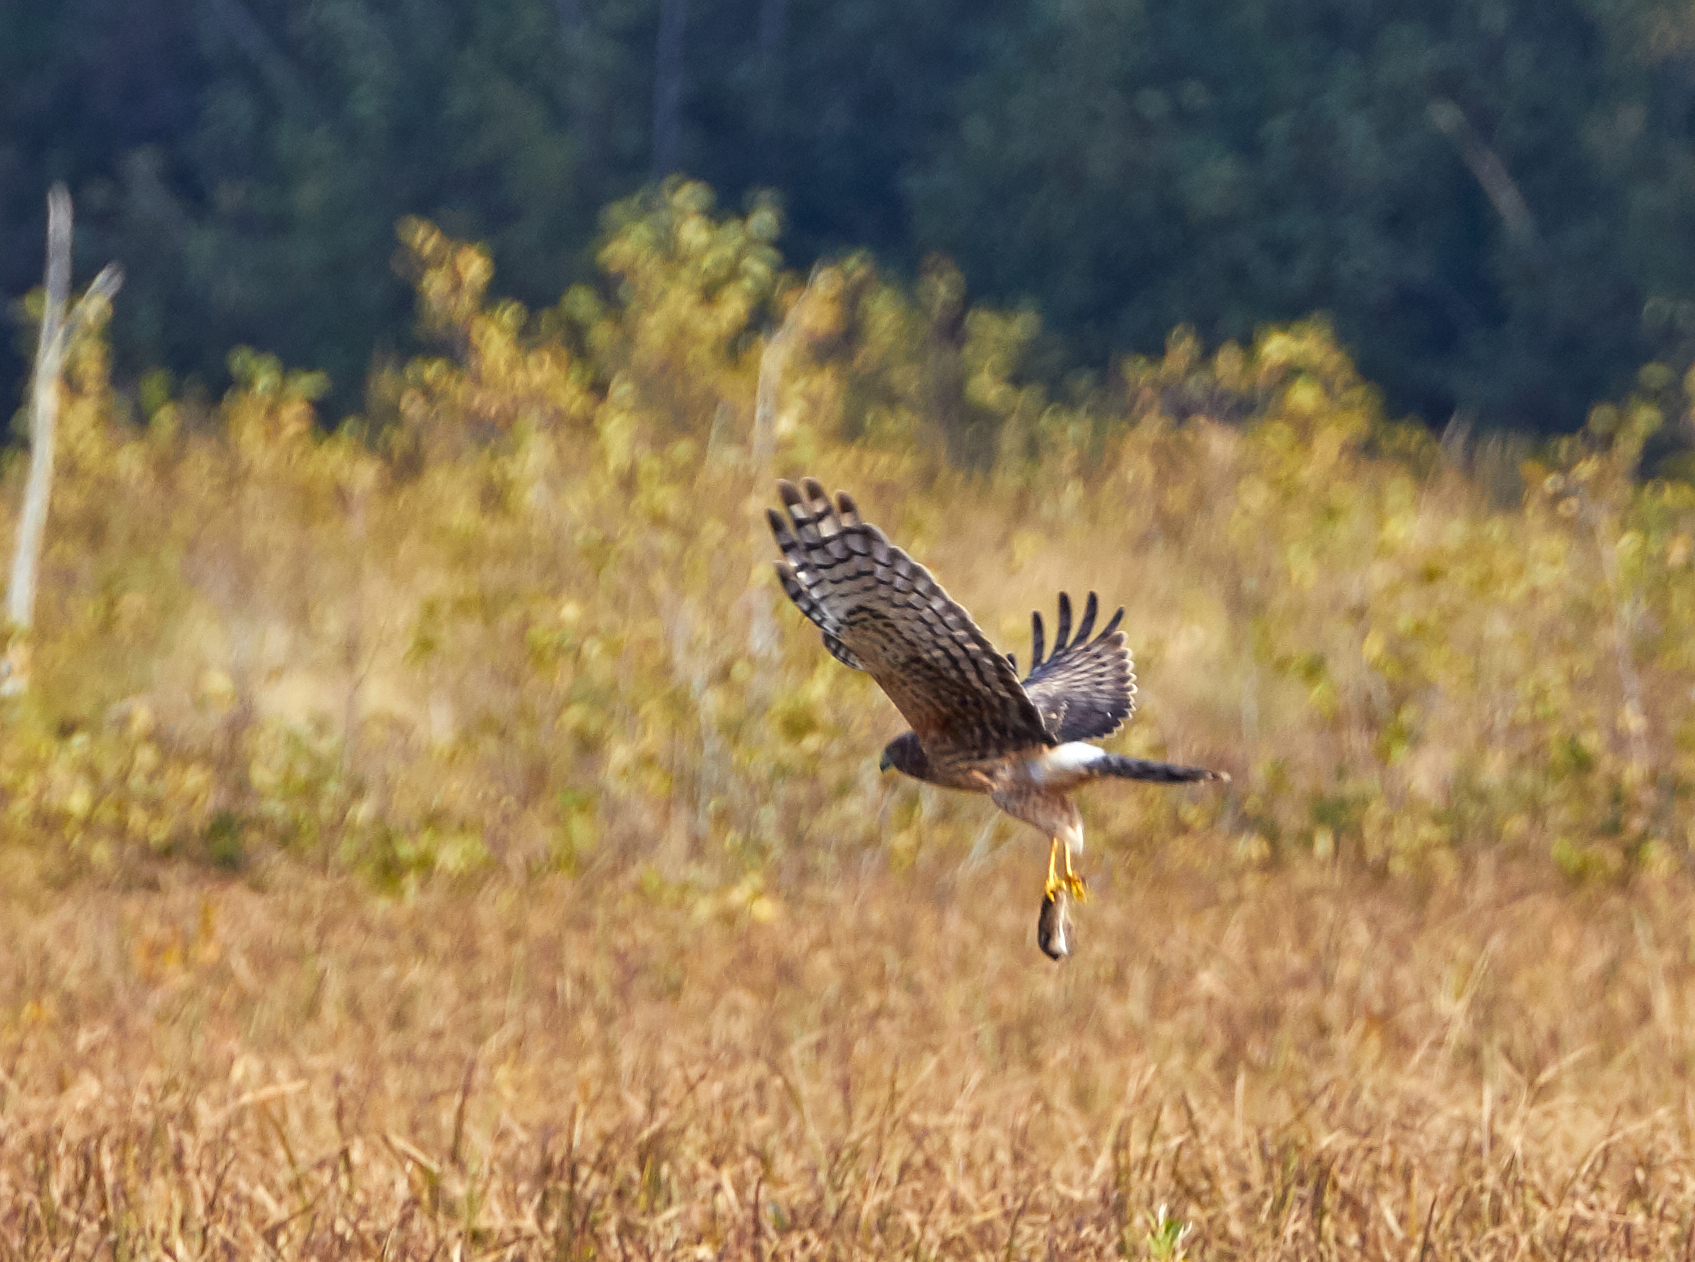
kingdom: Animalia
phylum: Chordata
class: Aves
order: Accipitriformes
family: Accipitridae
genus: Circus
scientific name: Circus cyaneus
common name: Hen harrier
